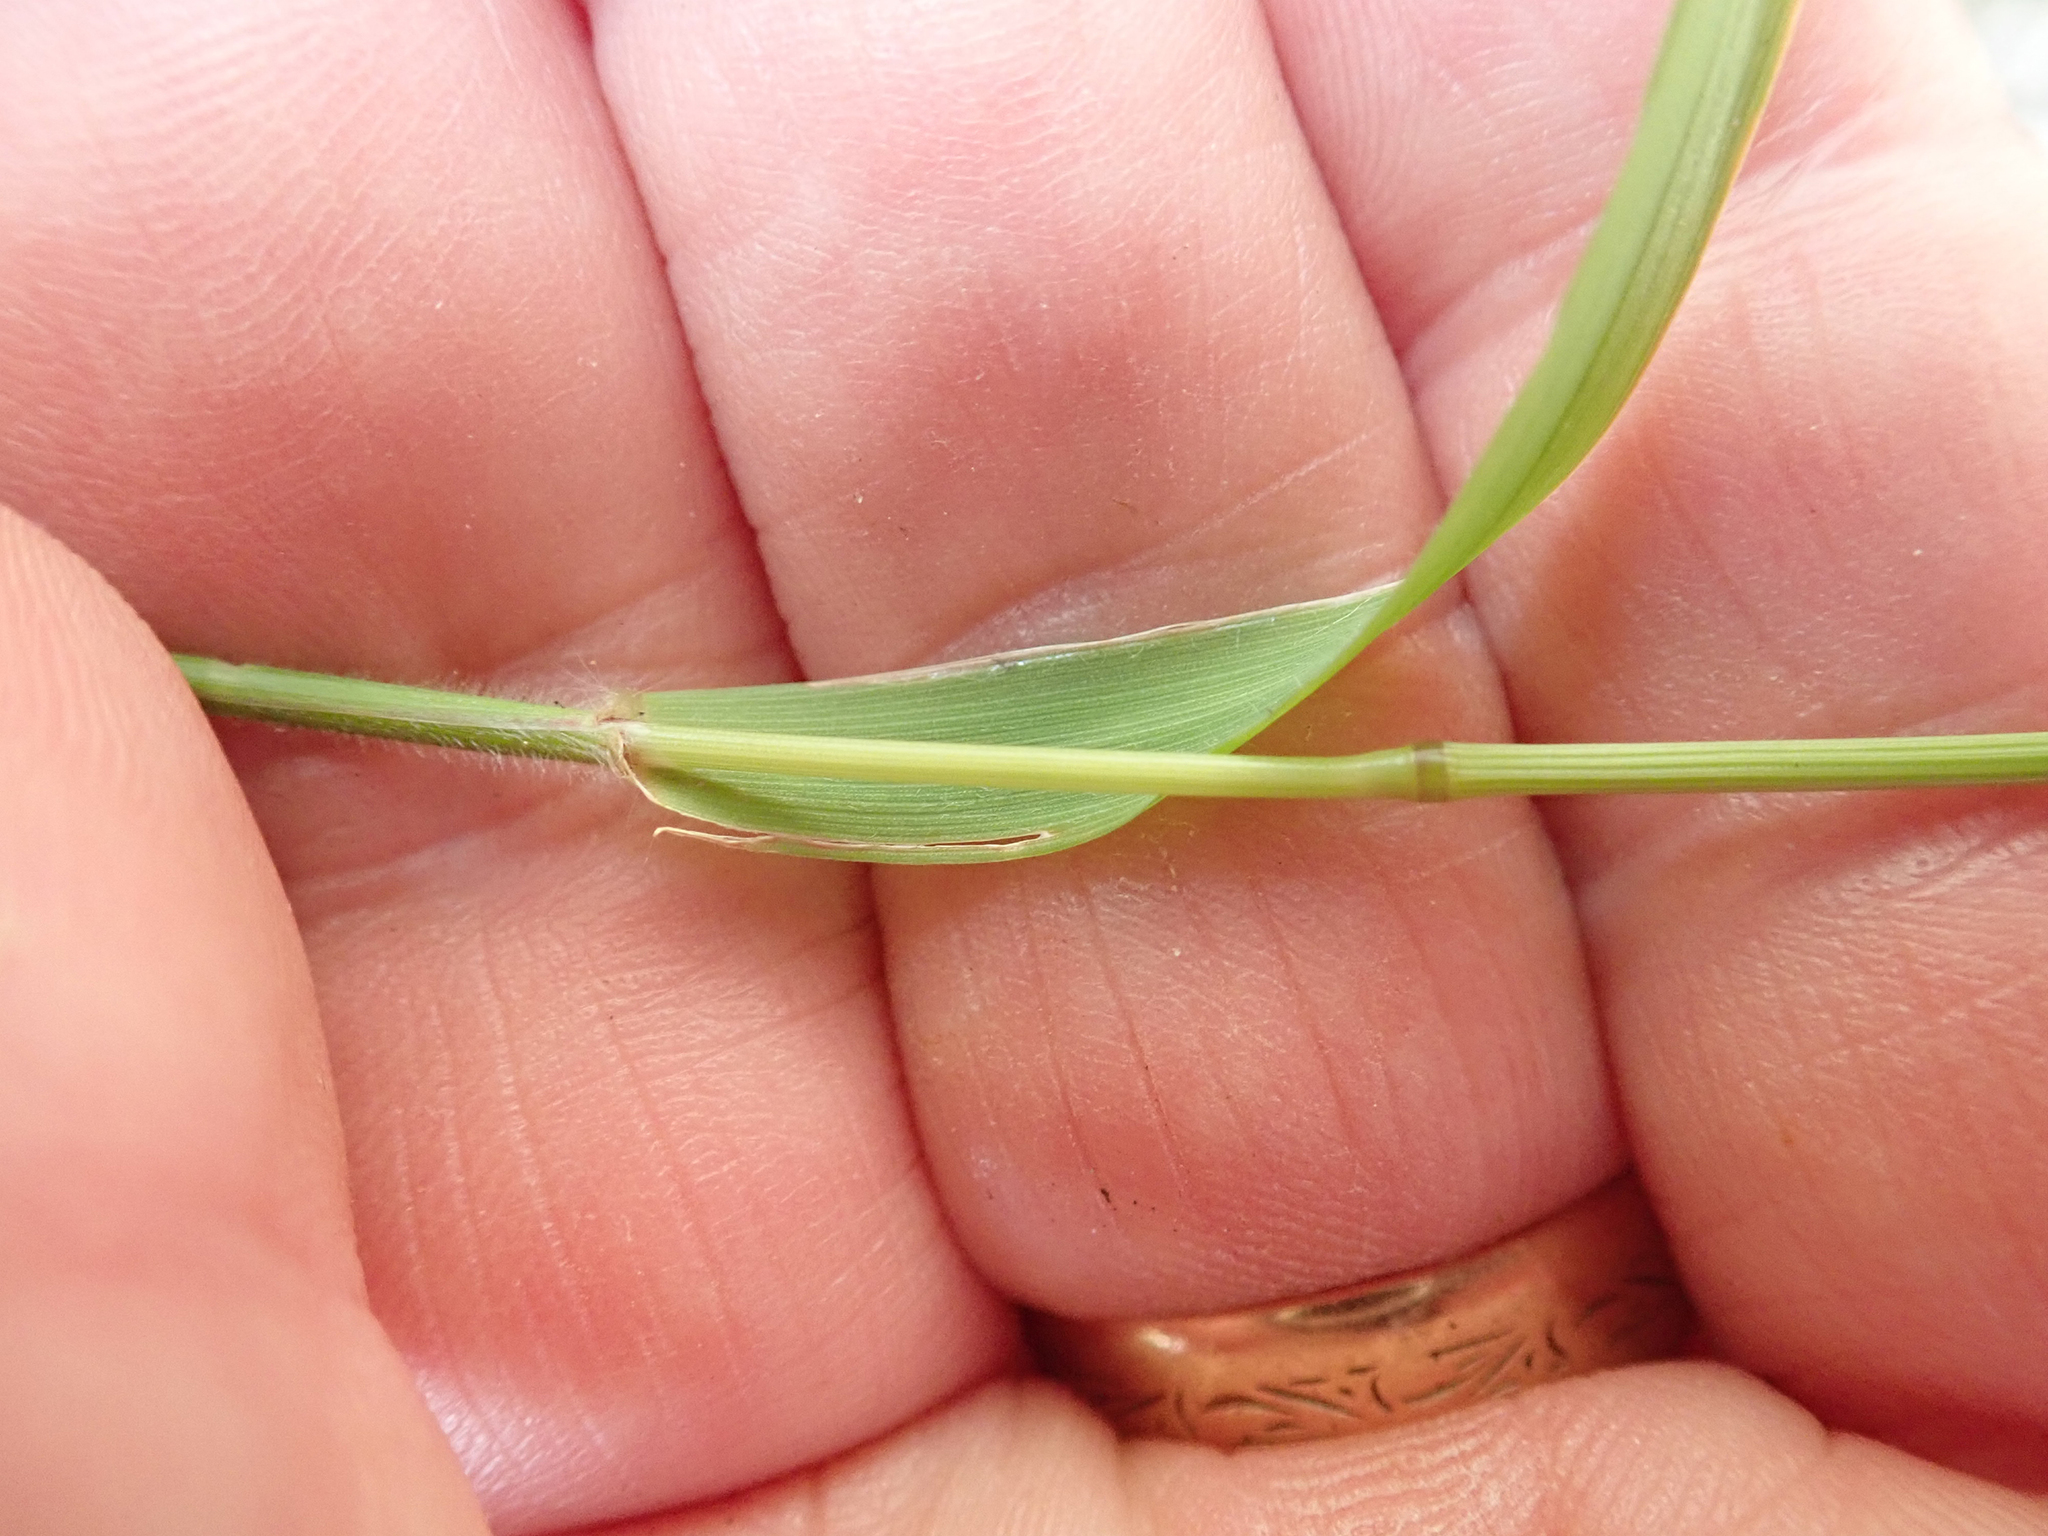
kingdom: Plantae
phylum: Tracheophyta
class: Liliopsida
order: Poales
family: Poaceae
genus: Anthoxanthum
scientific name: Anthoxanthum odoratum
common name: Sweet vernalgrass
